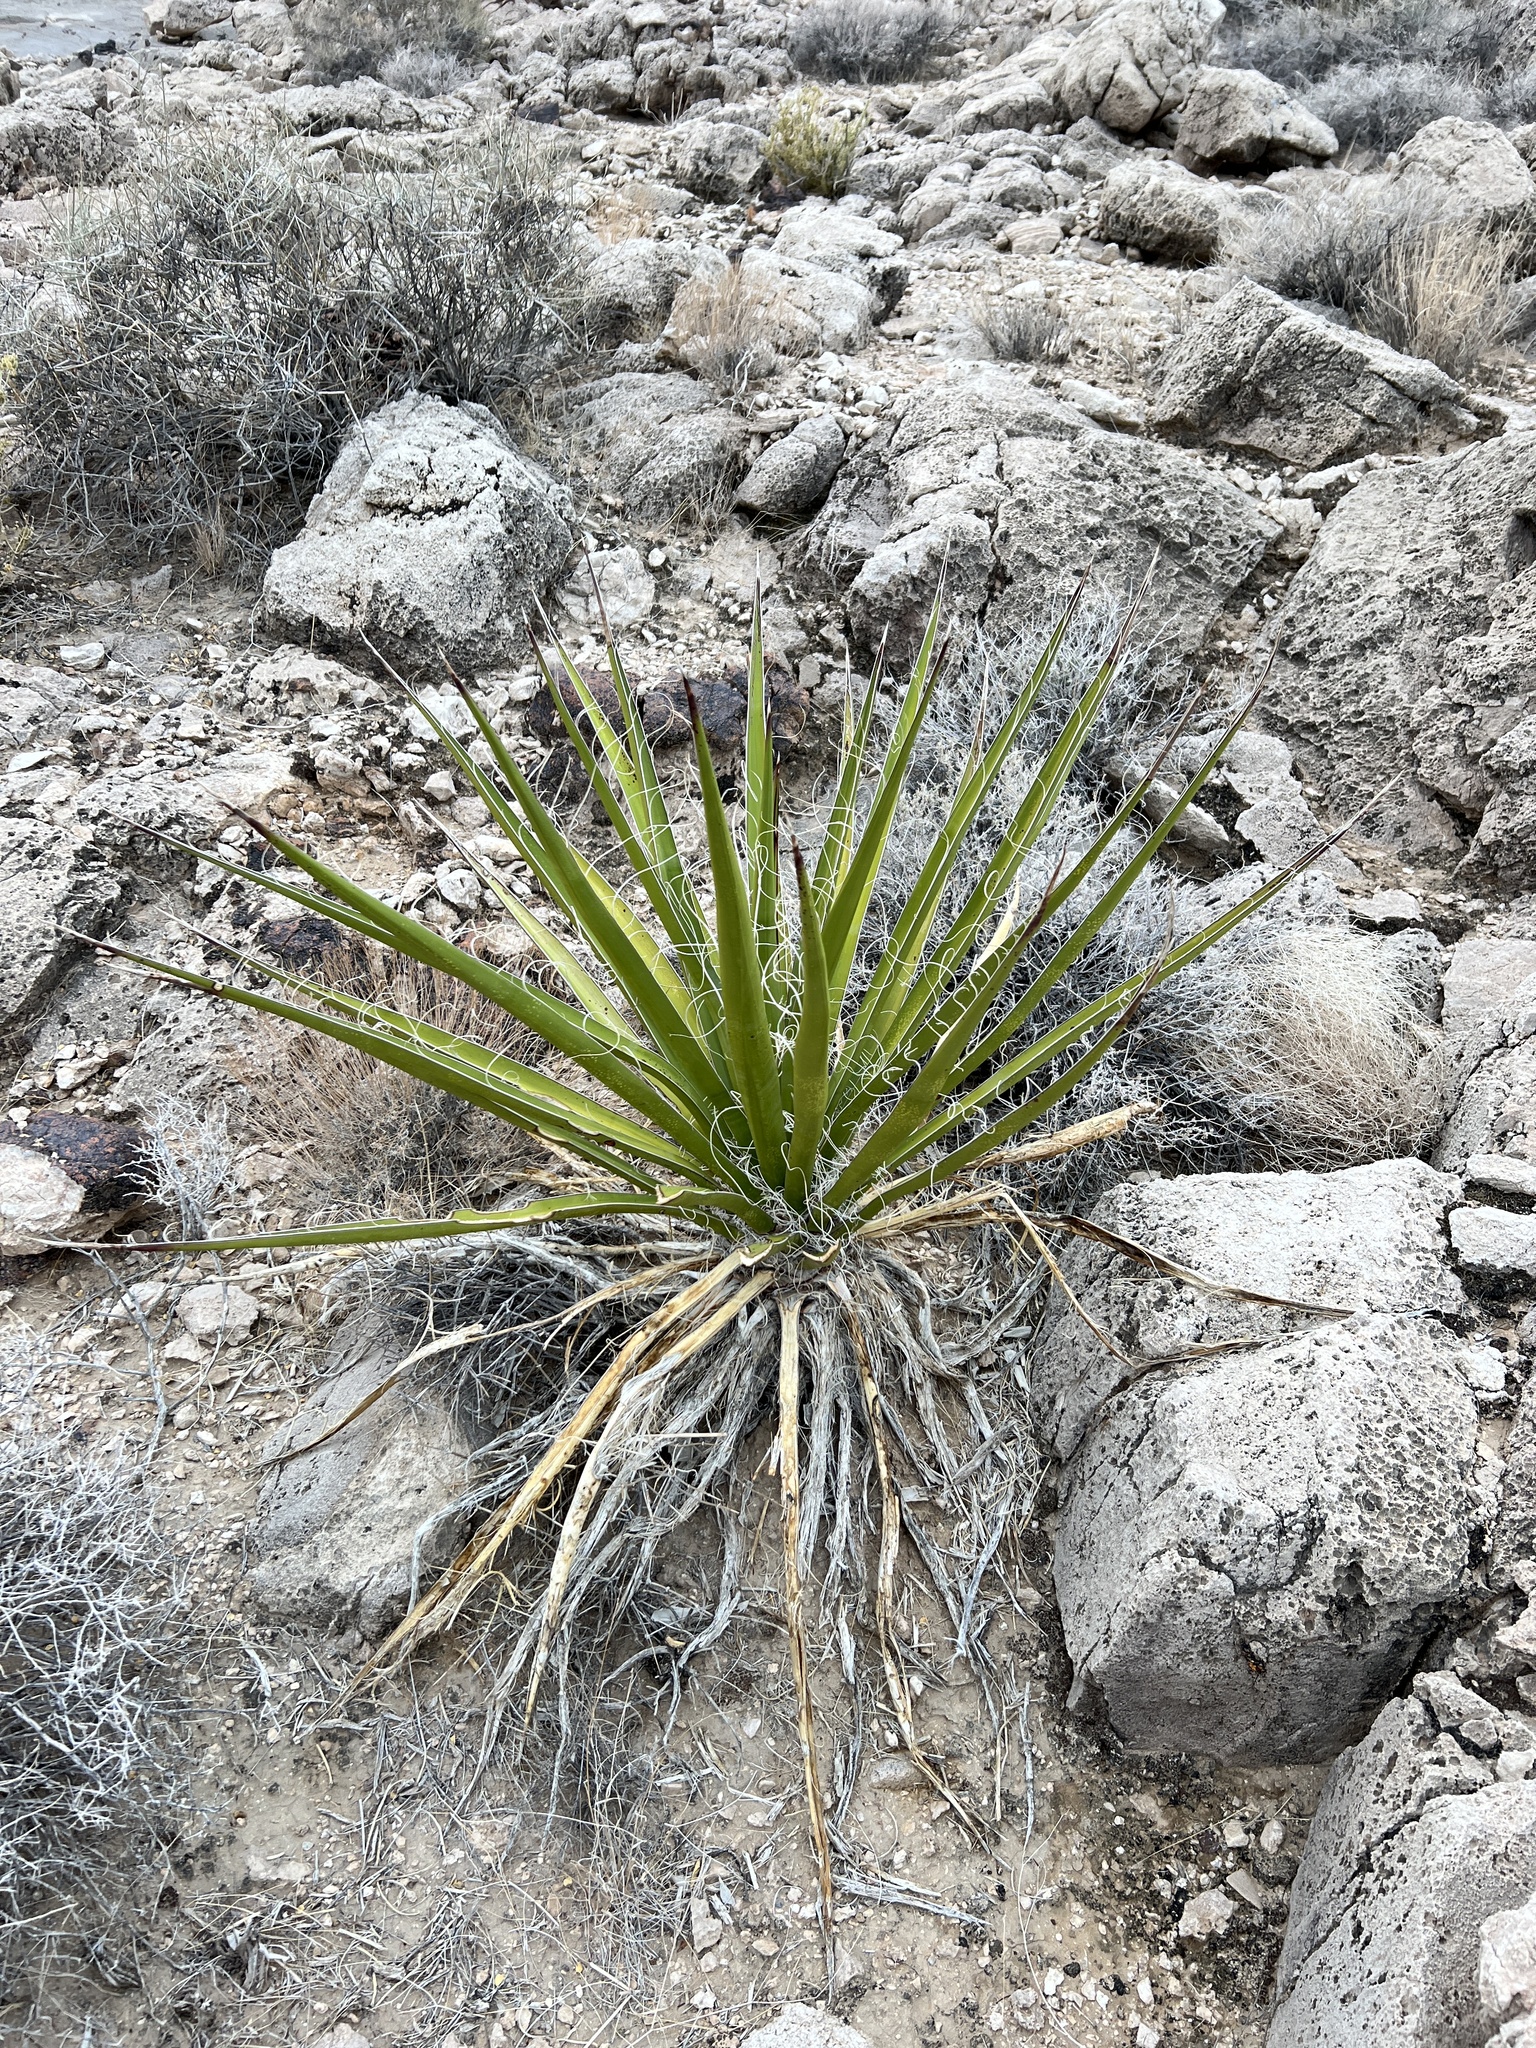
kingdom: Plantae
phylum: Tracheophyta
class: Liliopsida
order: Asparagales
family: Asparagaceae
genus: Yucca
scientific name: Yucca schidigera
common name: Mojave yucca
